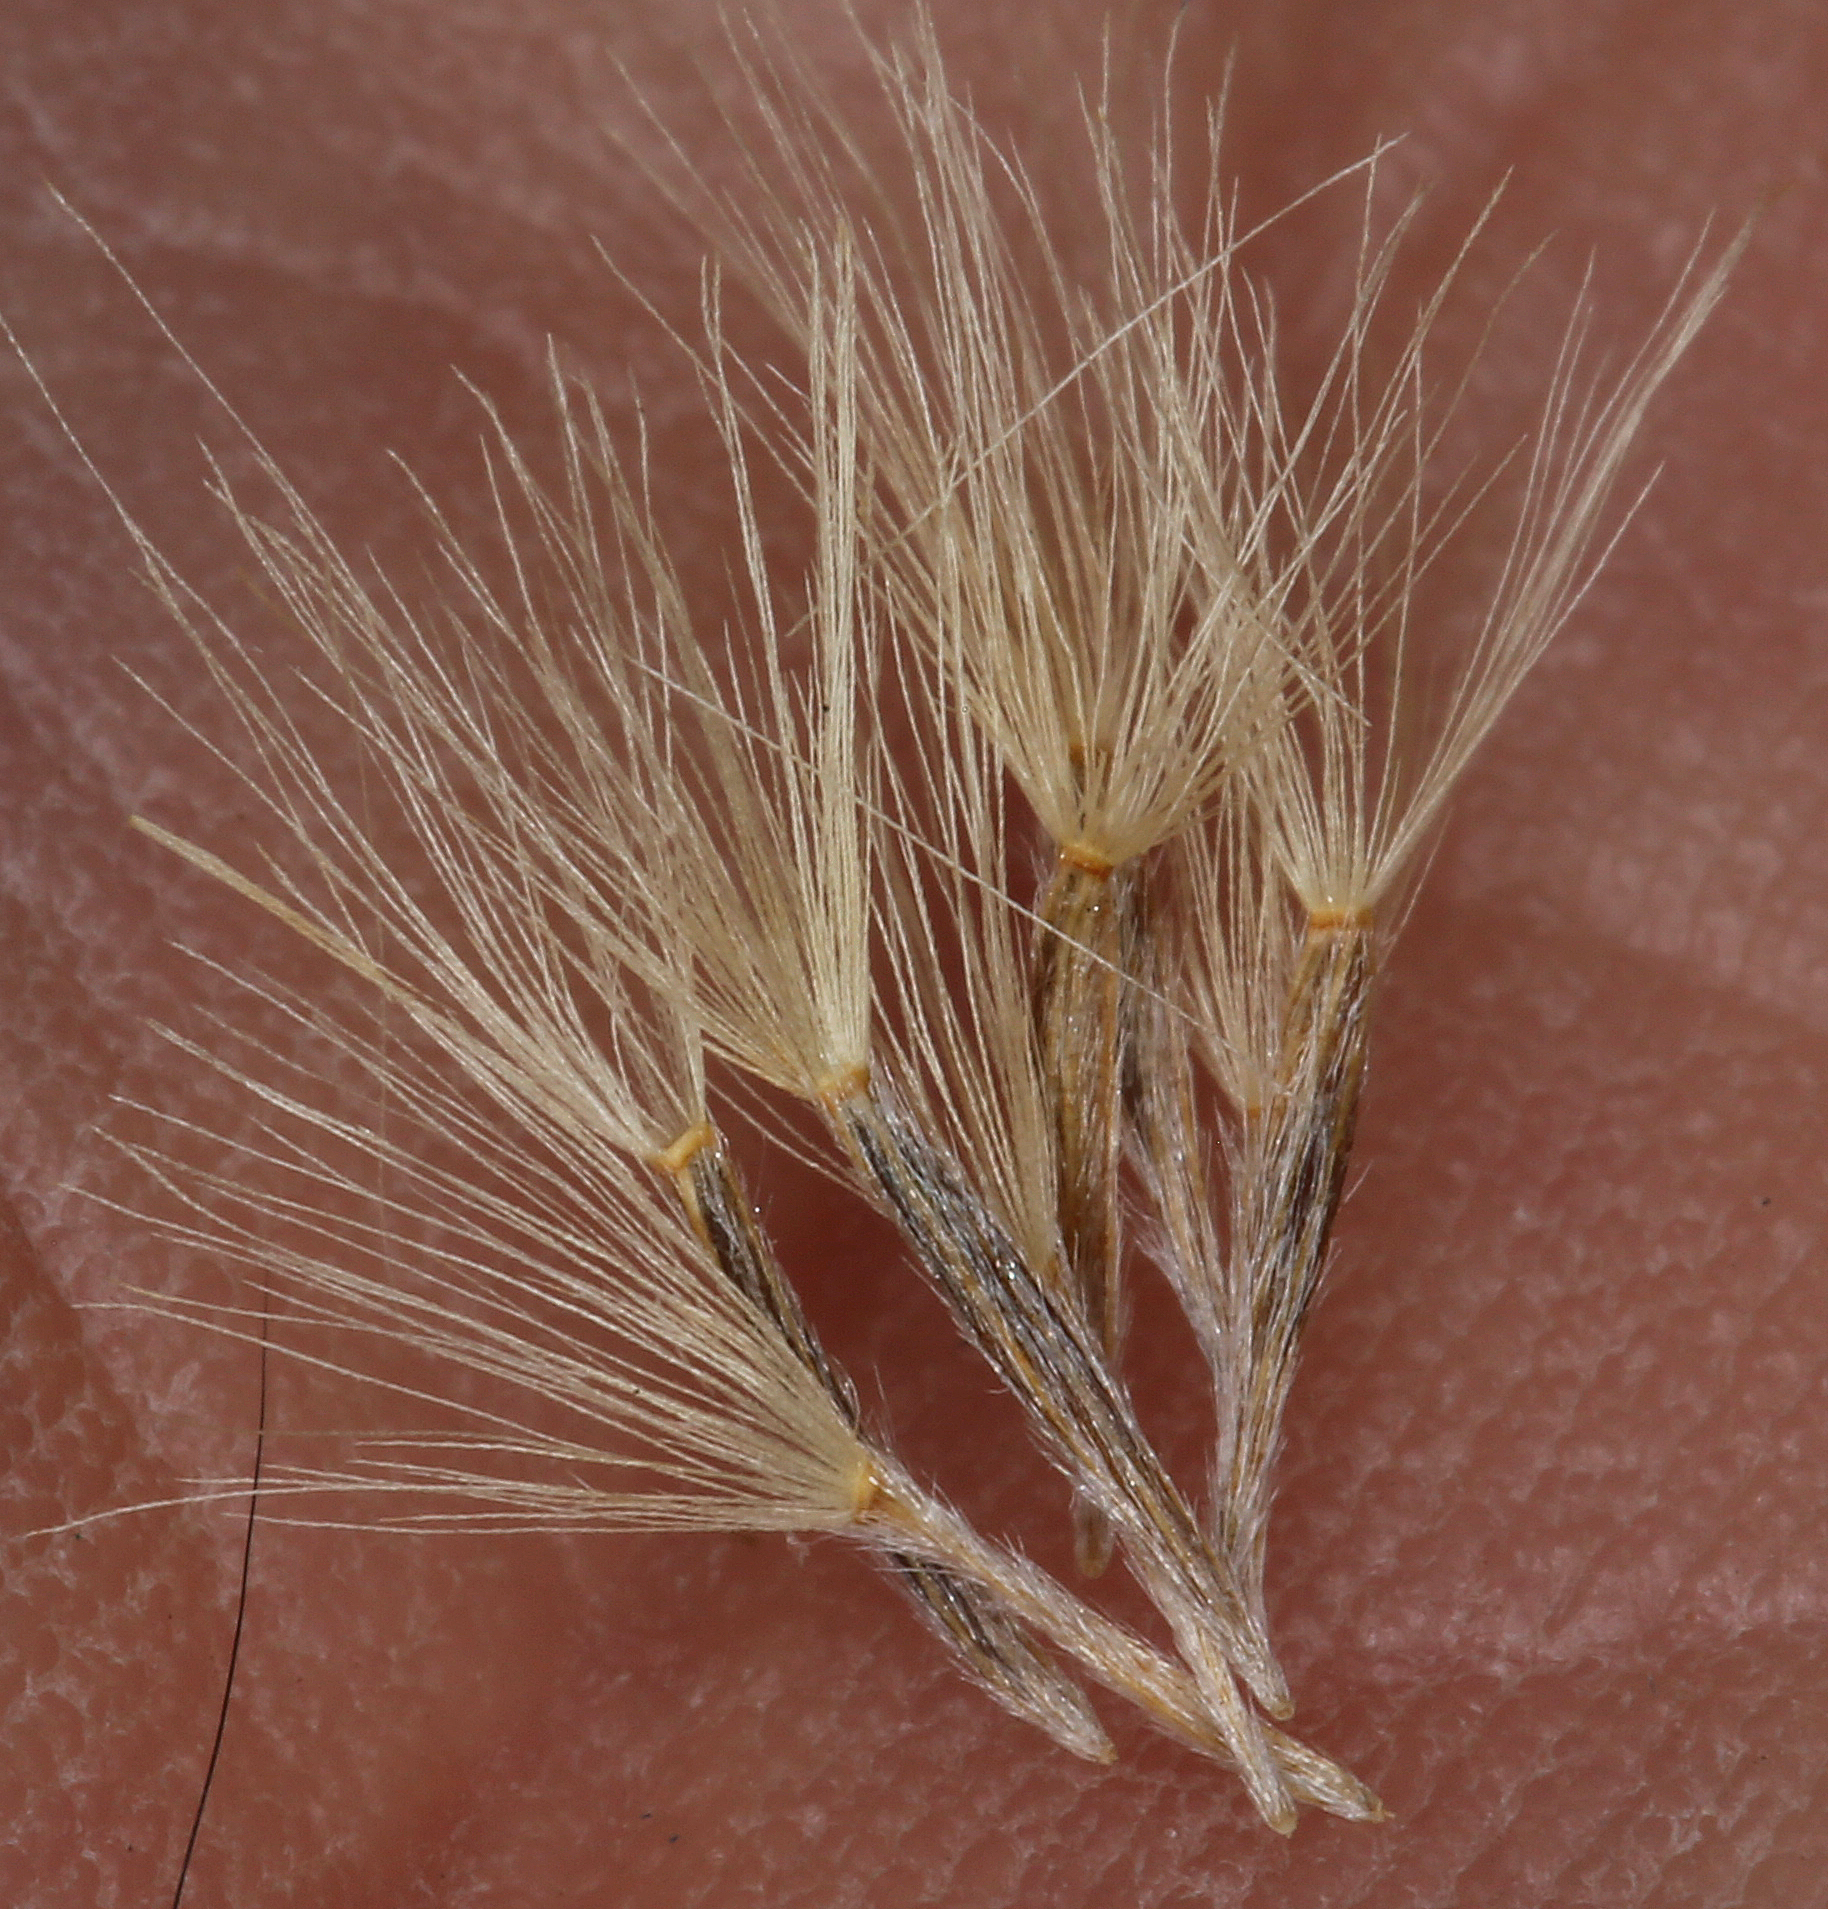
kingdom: Plantae
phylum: Tracheophyta
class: Magnoliopsida
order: Asterales
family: Asteraceae
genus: Ericameria
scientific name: Ericameria teretifolia
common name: Round-leaf rabbitbrush
